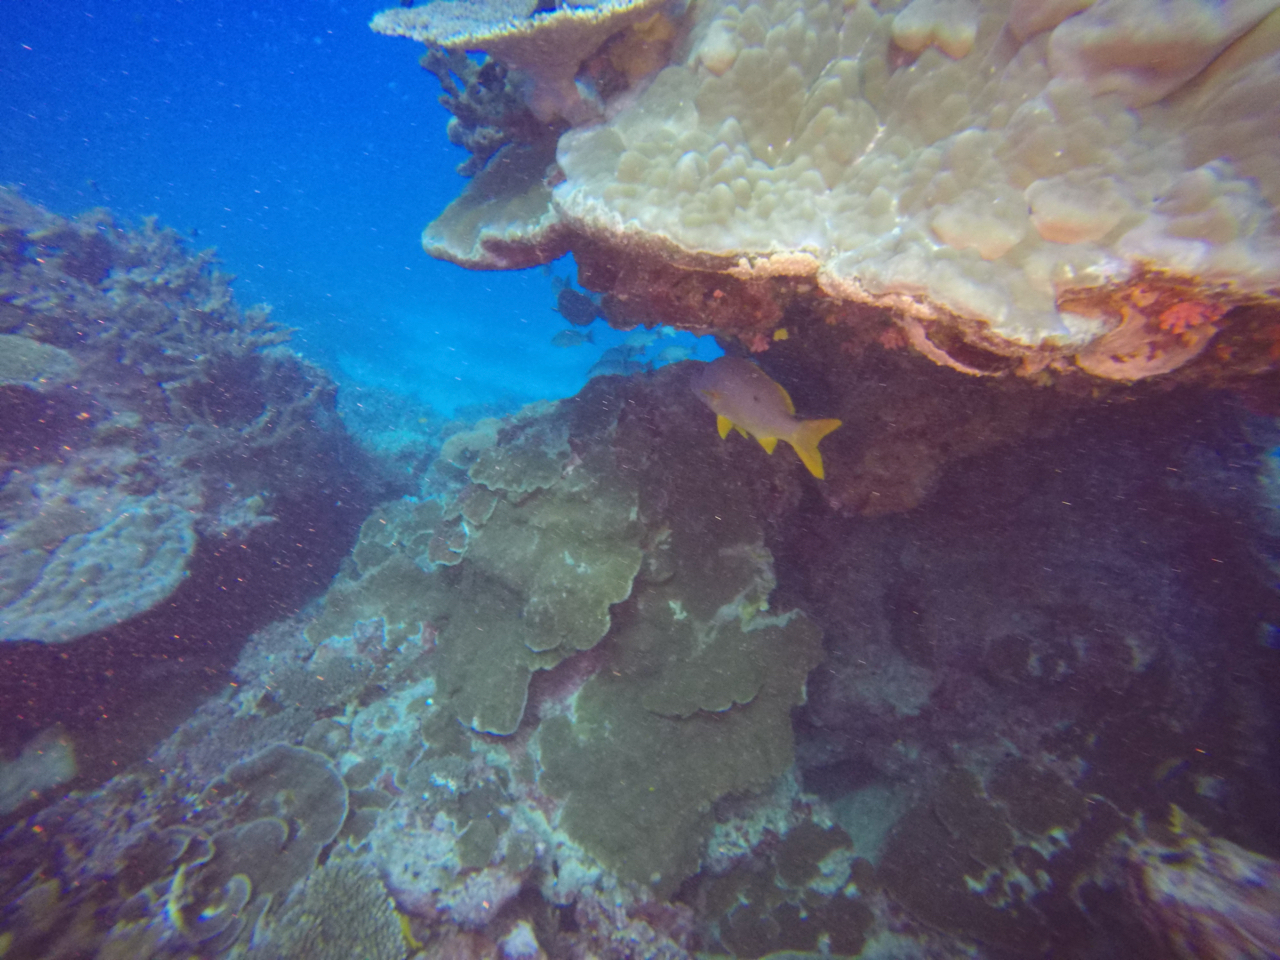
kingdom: Animalia
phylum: Chordata
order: Perciformes
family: Lutjanidae
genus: Lutjanus
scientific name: Lutjanus monostigma
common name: Onespot snapper
